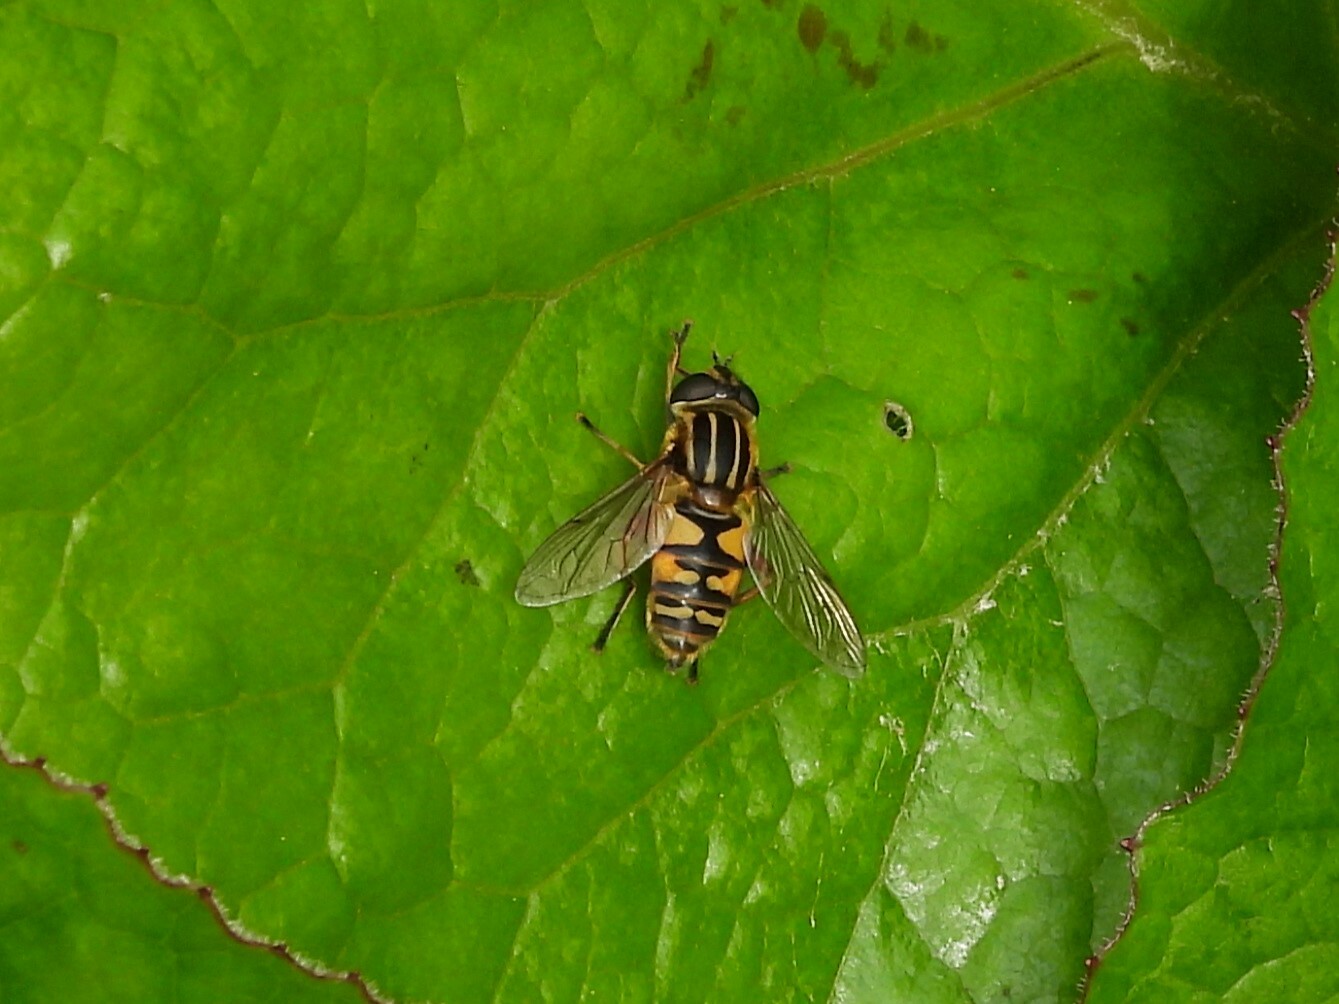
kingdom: Animalia
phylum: Arthropoda
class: Insecta
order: Diptera
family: Syrphidae
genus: Helophilus
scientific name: Helophilus pendulus
